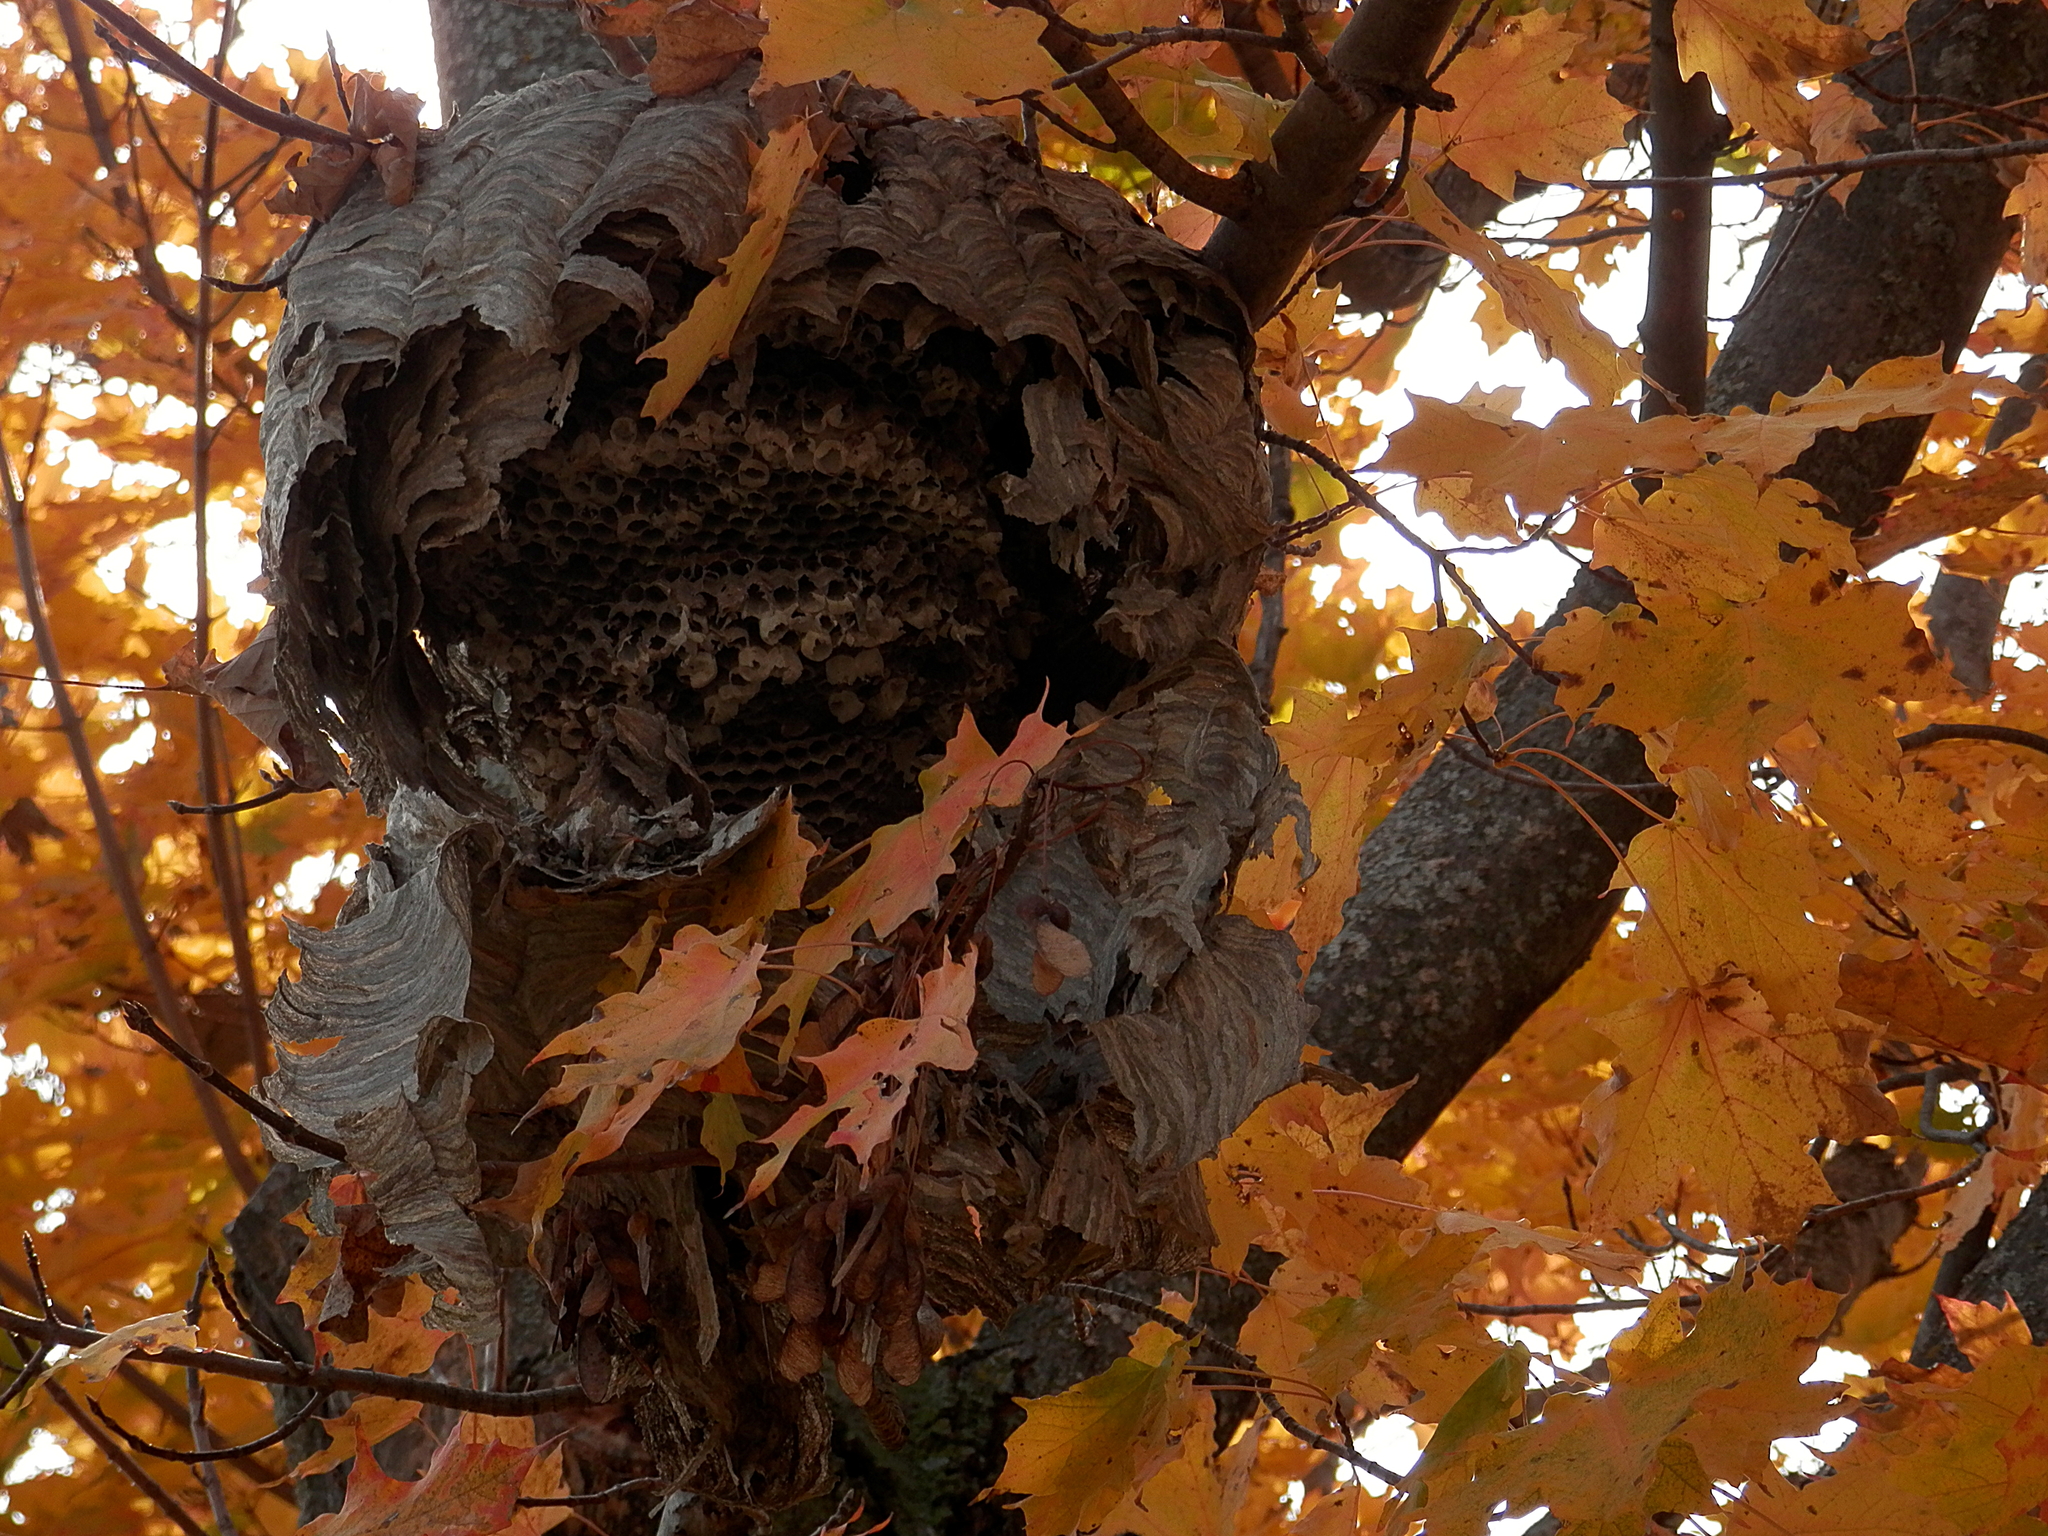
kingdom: Animalia
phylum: Arthropoda
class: Insecta
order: Hymenoptera
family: Vespidae
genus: Dolichovespula
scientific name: Dolichovespula maculata
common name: Bald-faced hornet
